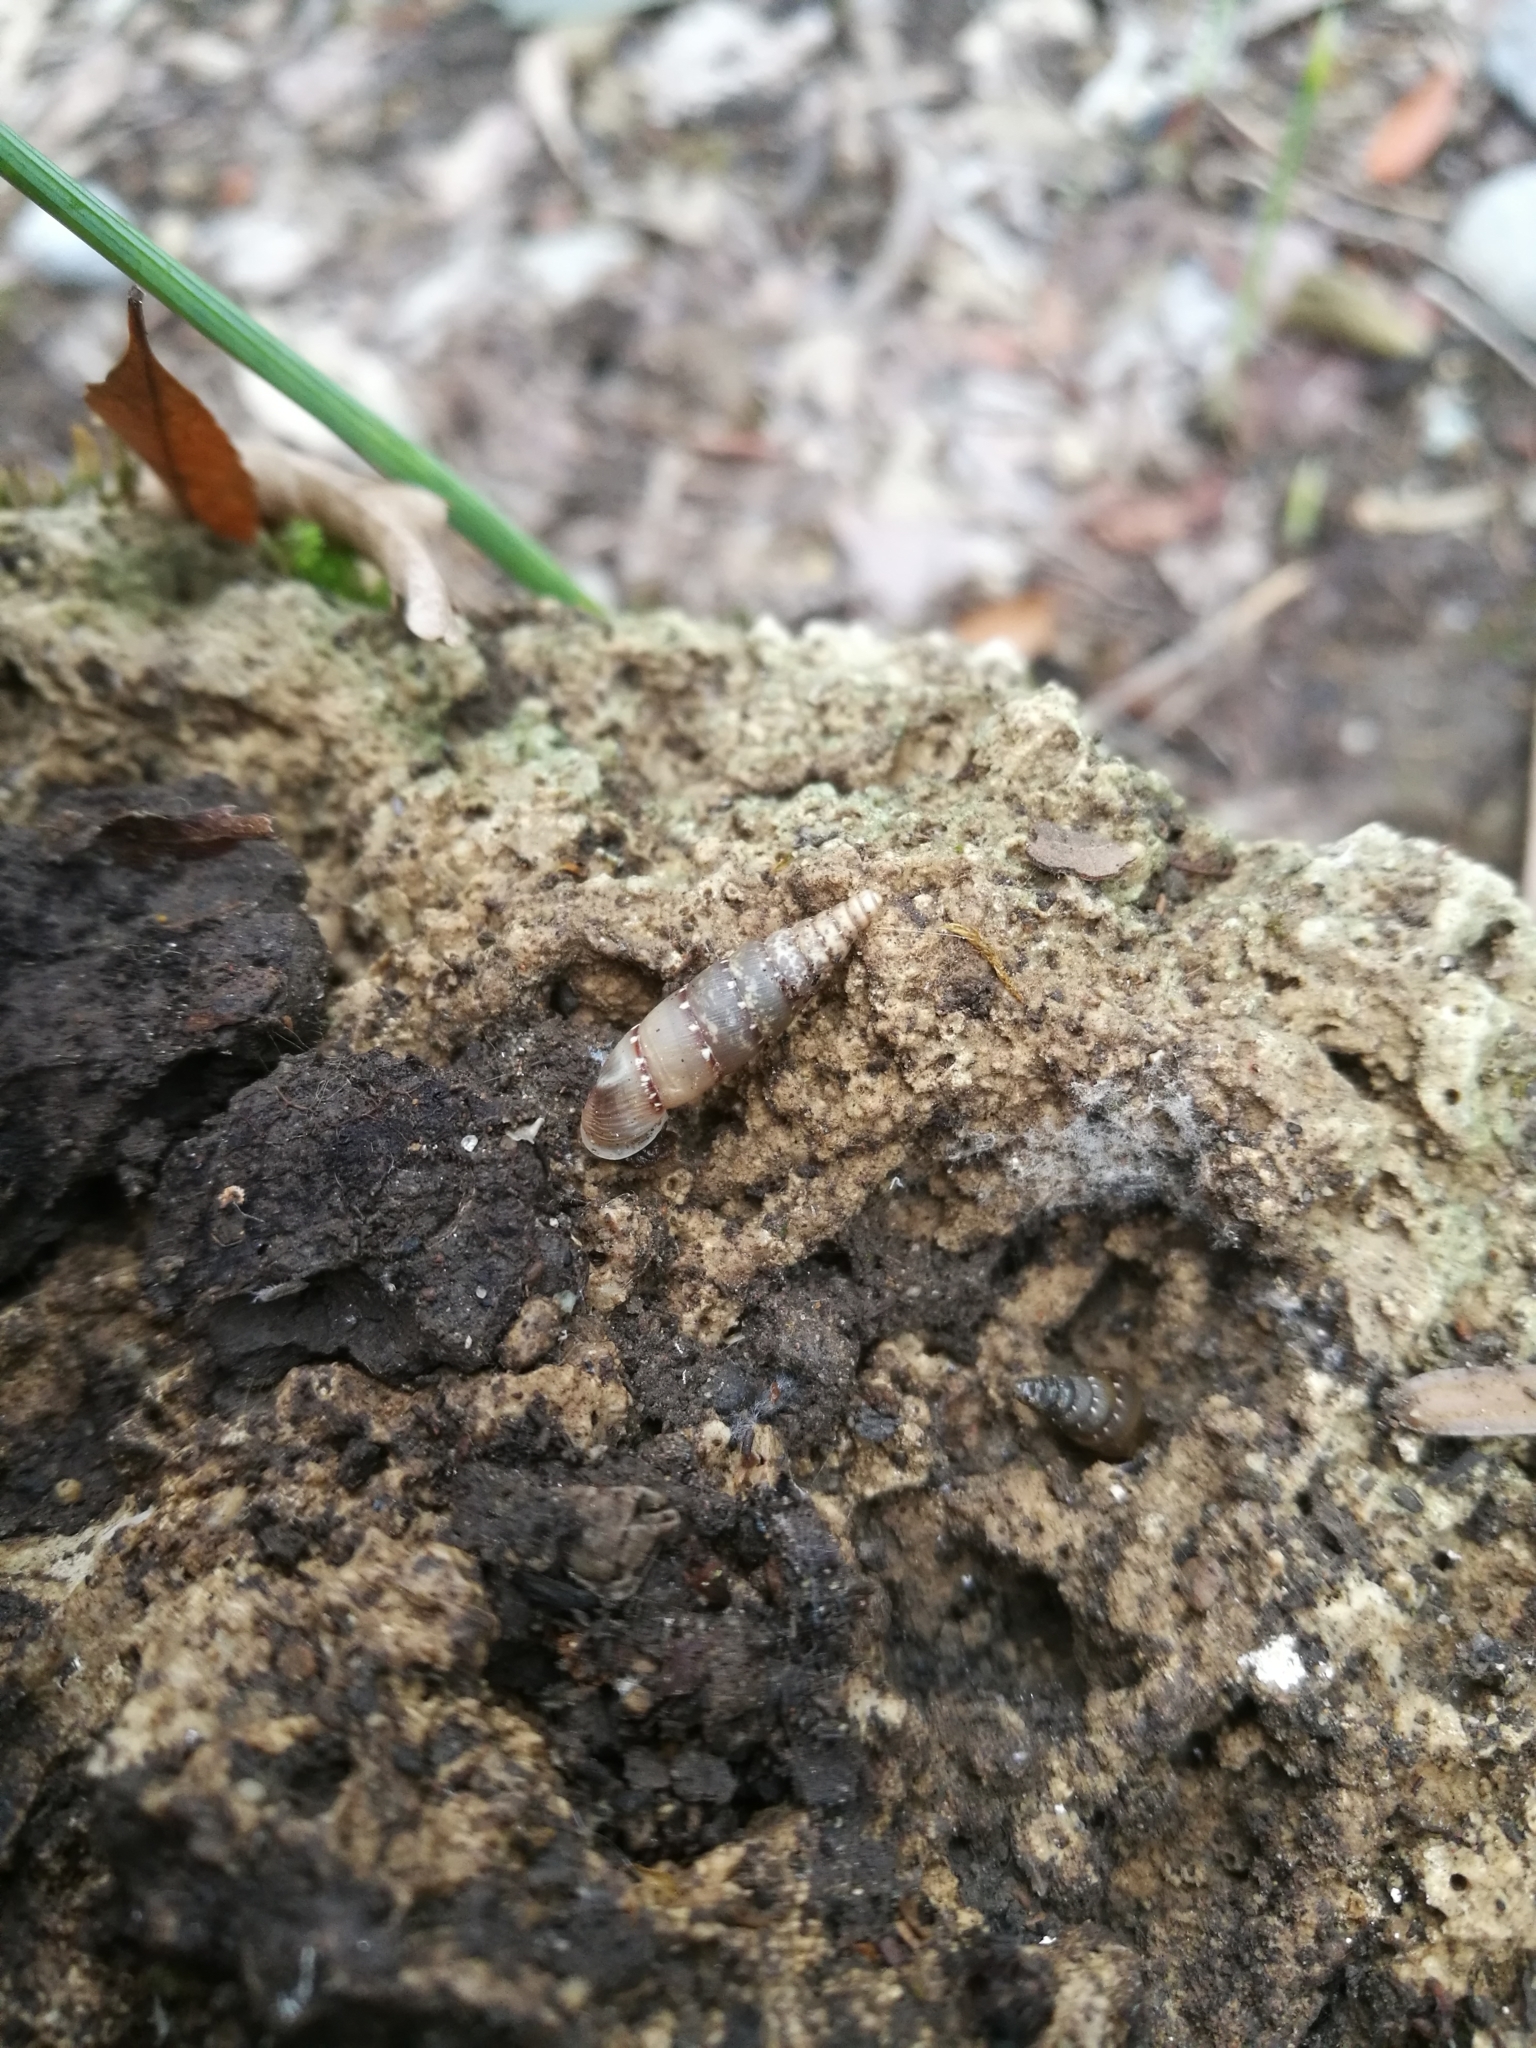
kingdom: Animalia
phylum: Mollusca
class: Gastropoda
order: Stylommatophora
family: Clausiliidae
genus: Papillifera
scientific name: Papillifera papillaris
